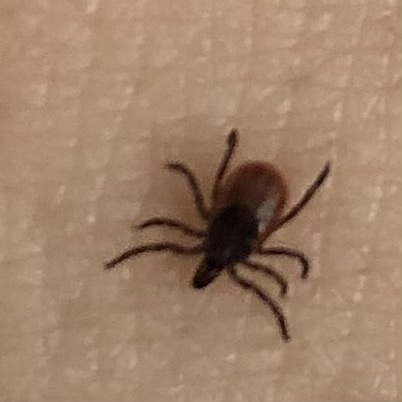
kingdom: Animalia
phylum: Arthropoda
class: Arachnida
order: Ixodida
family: Ixodidae
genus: Ixodes
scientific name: Ixodes scapularis
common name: Black legged tick
